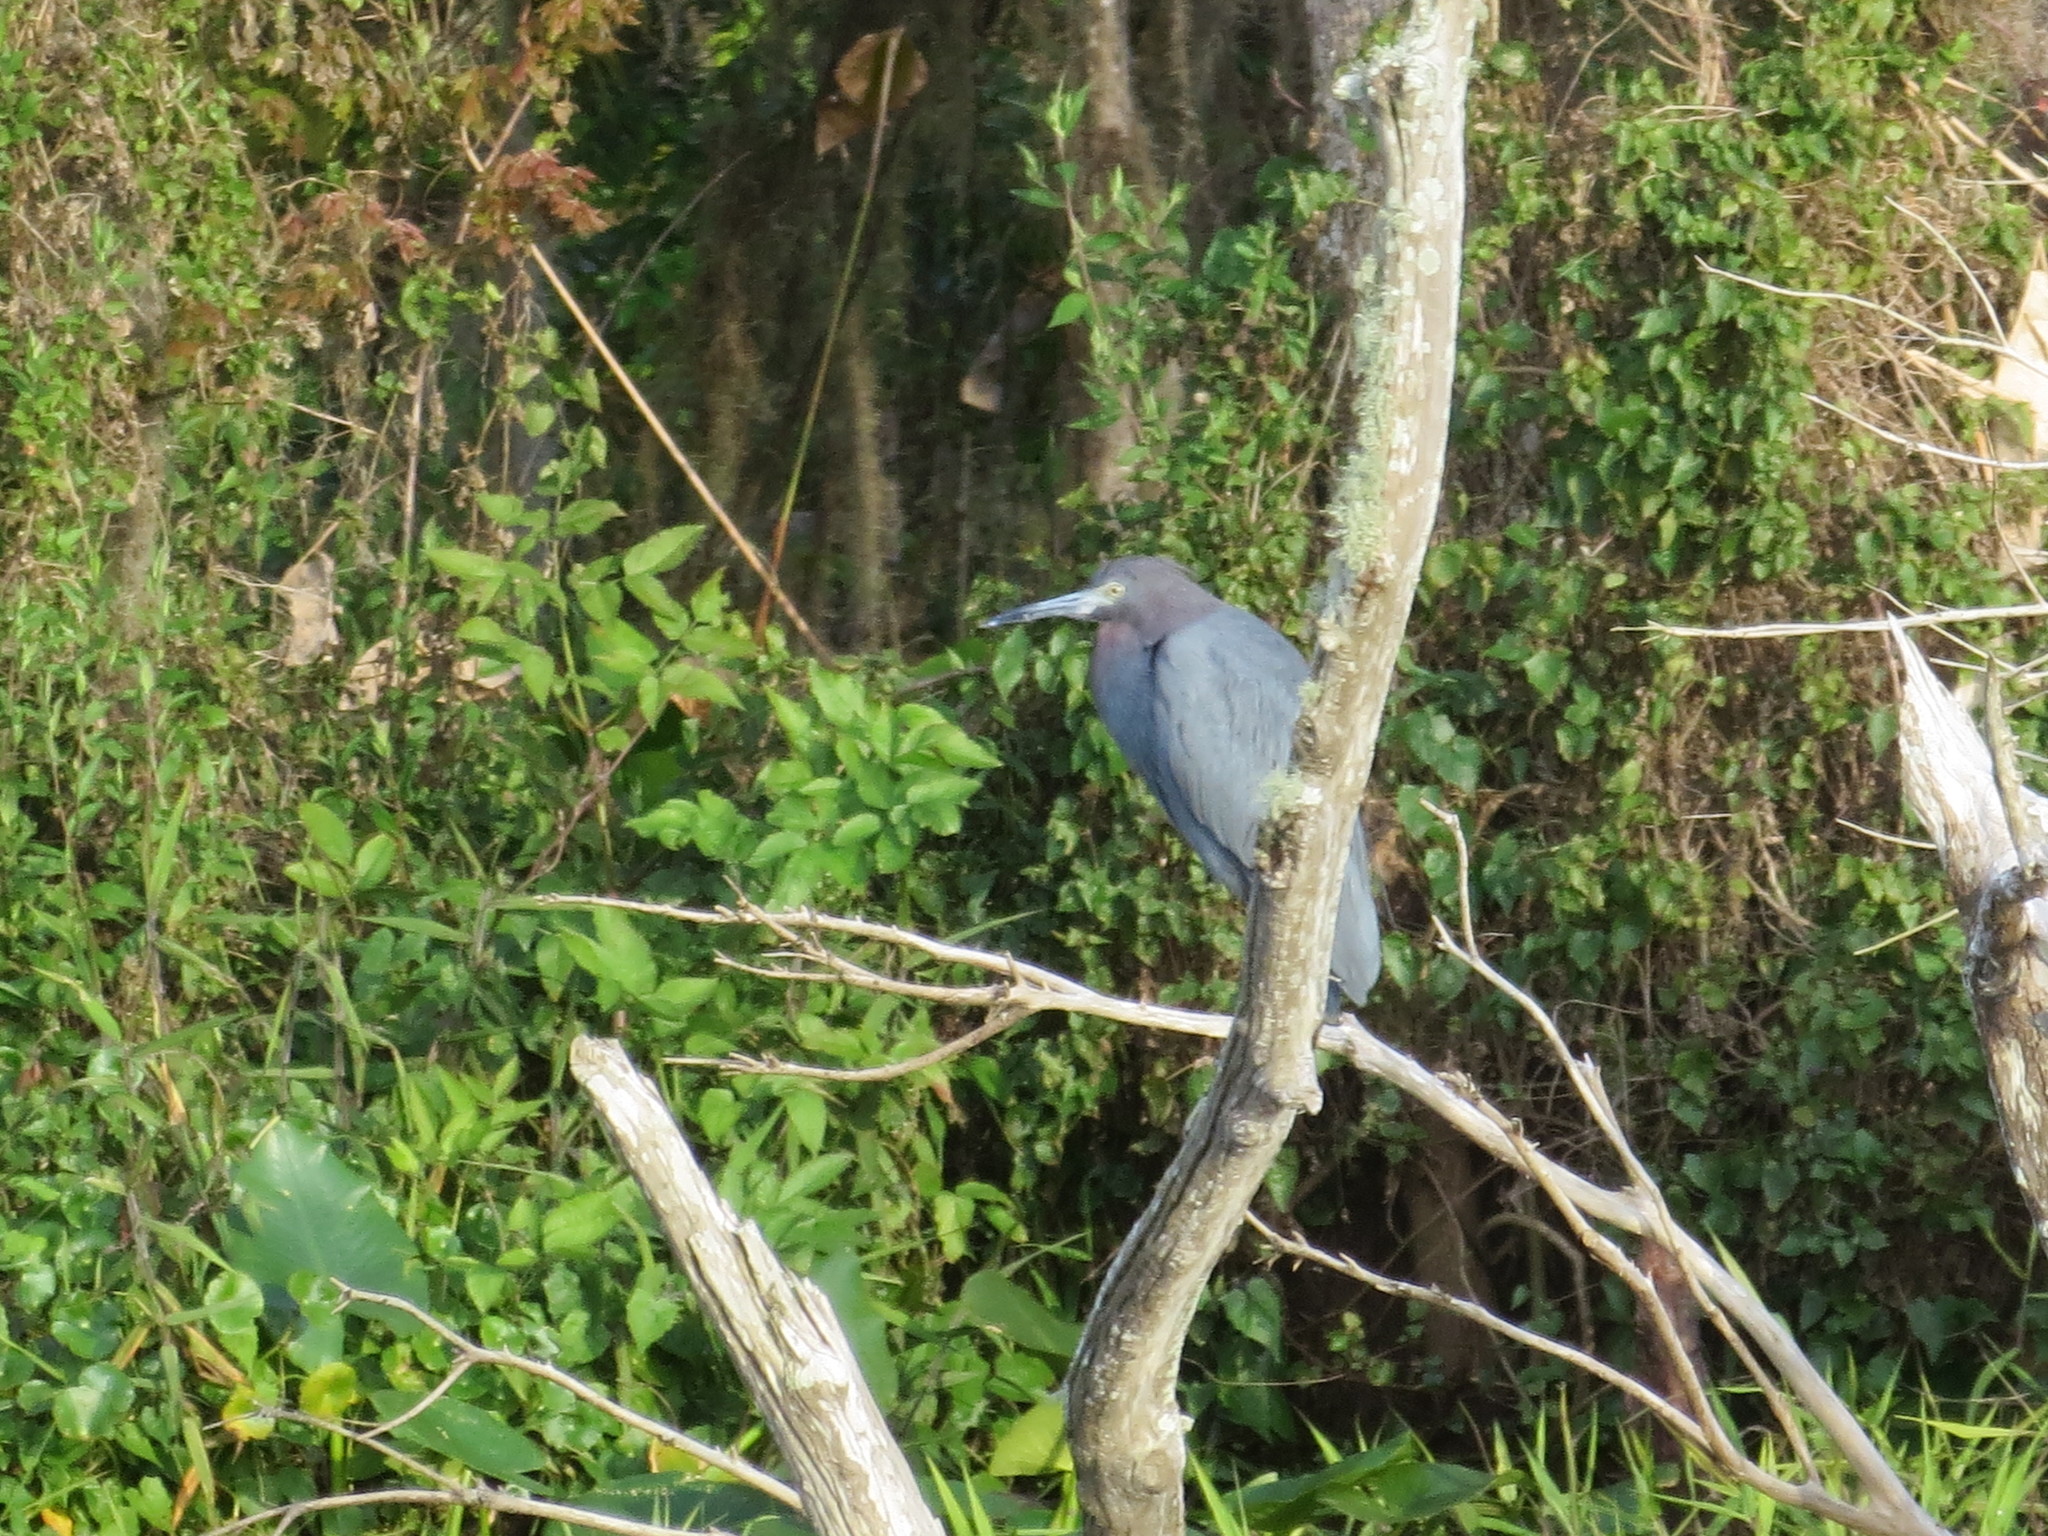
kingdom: Animalia
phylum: Chordata
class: Aves
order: Pelecaniformes
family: Ardeidae
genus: Egretta
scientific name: Egretta caerulea
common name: Little blue heron
